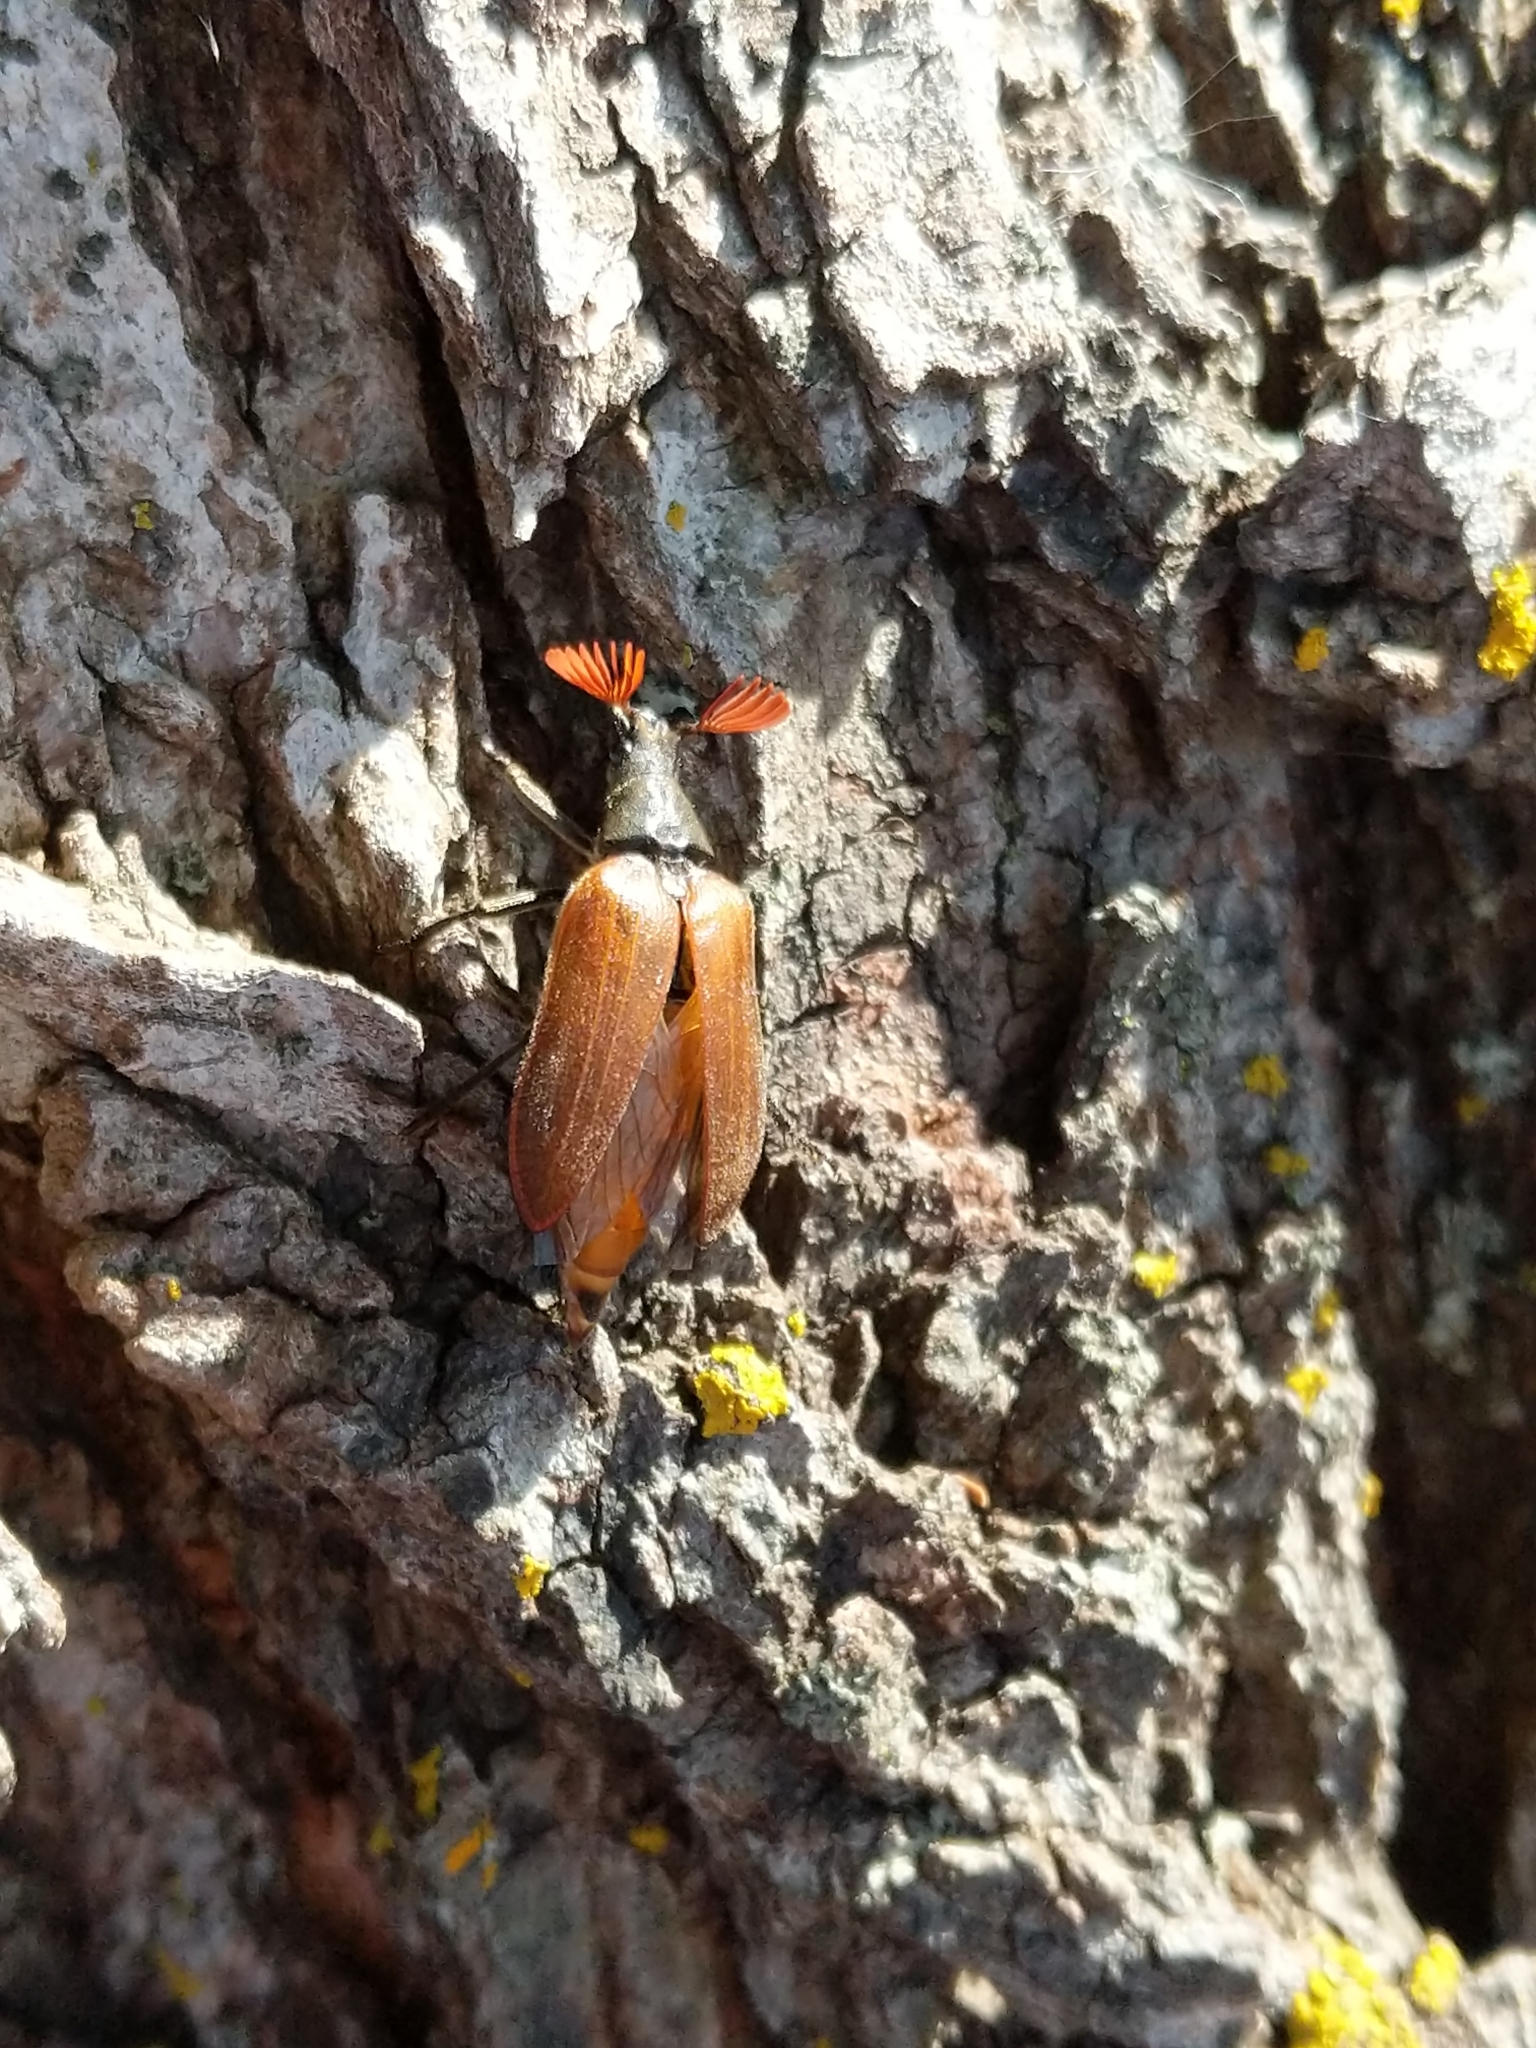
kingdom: Animalia
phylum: Arthropoda
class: Insecta
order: Coleoptera
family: Rhipiceridae
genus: Sandalus
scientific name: Sandalus niger
